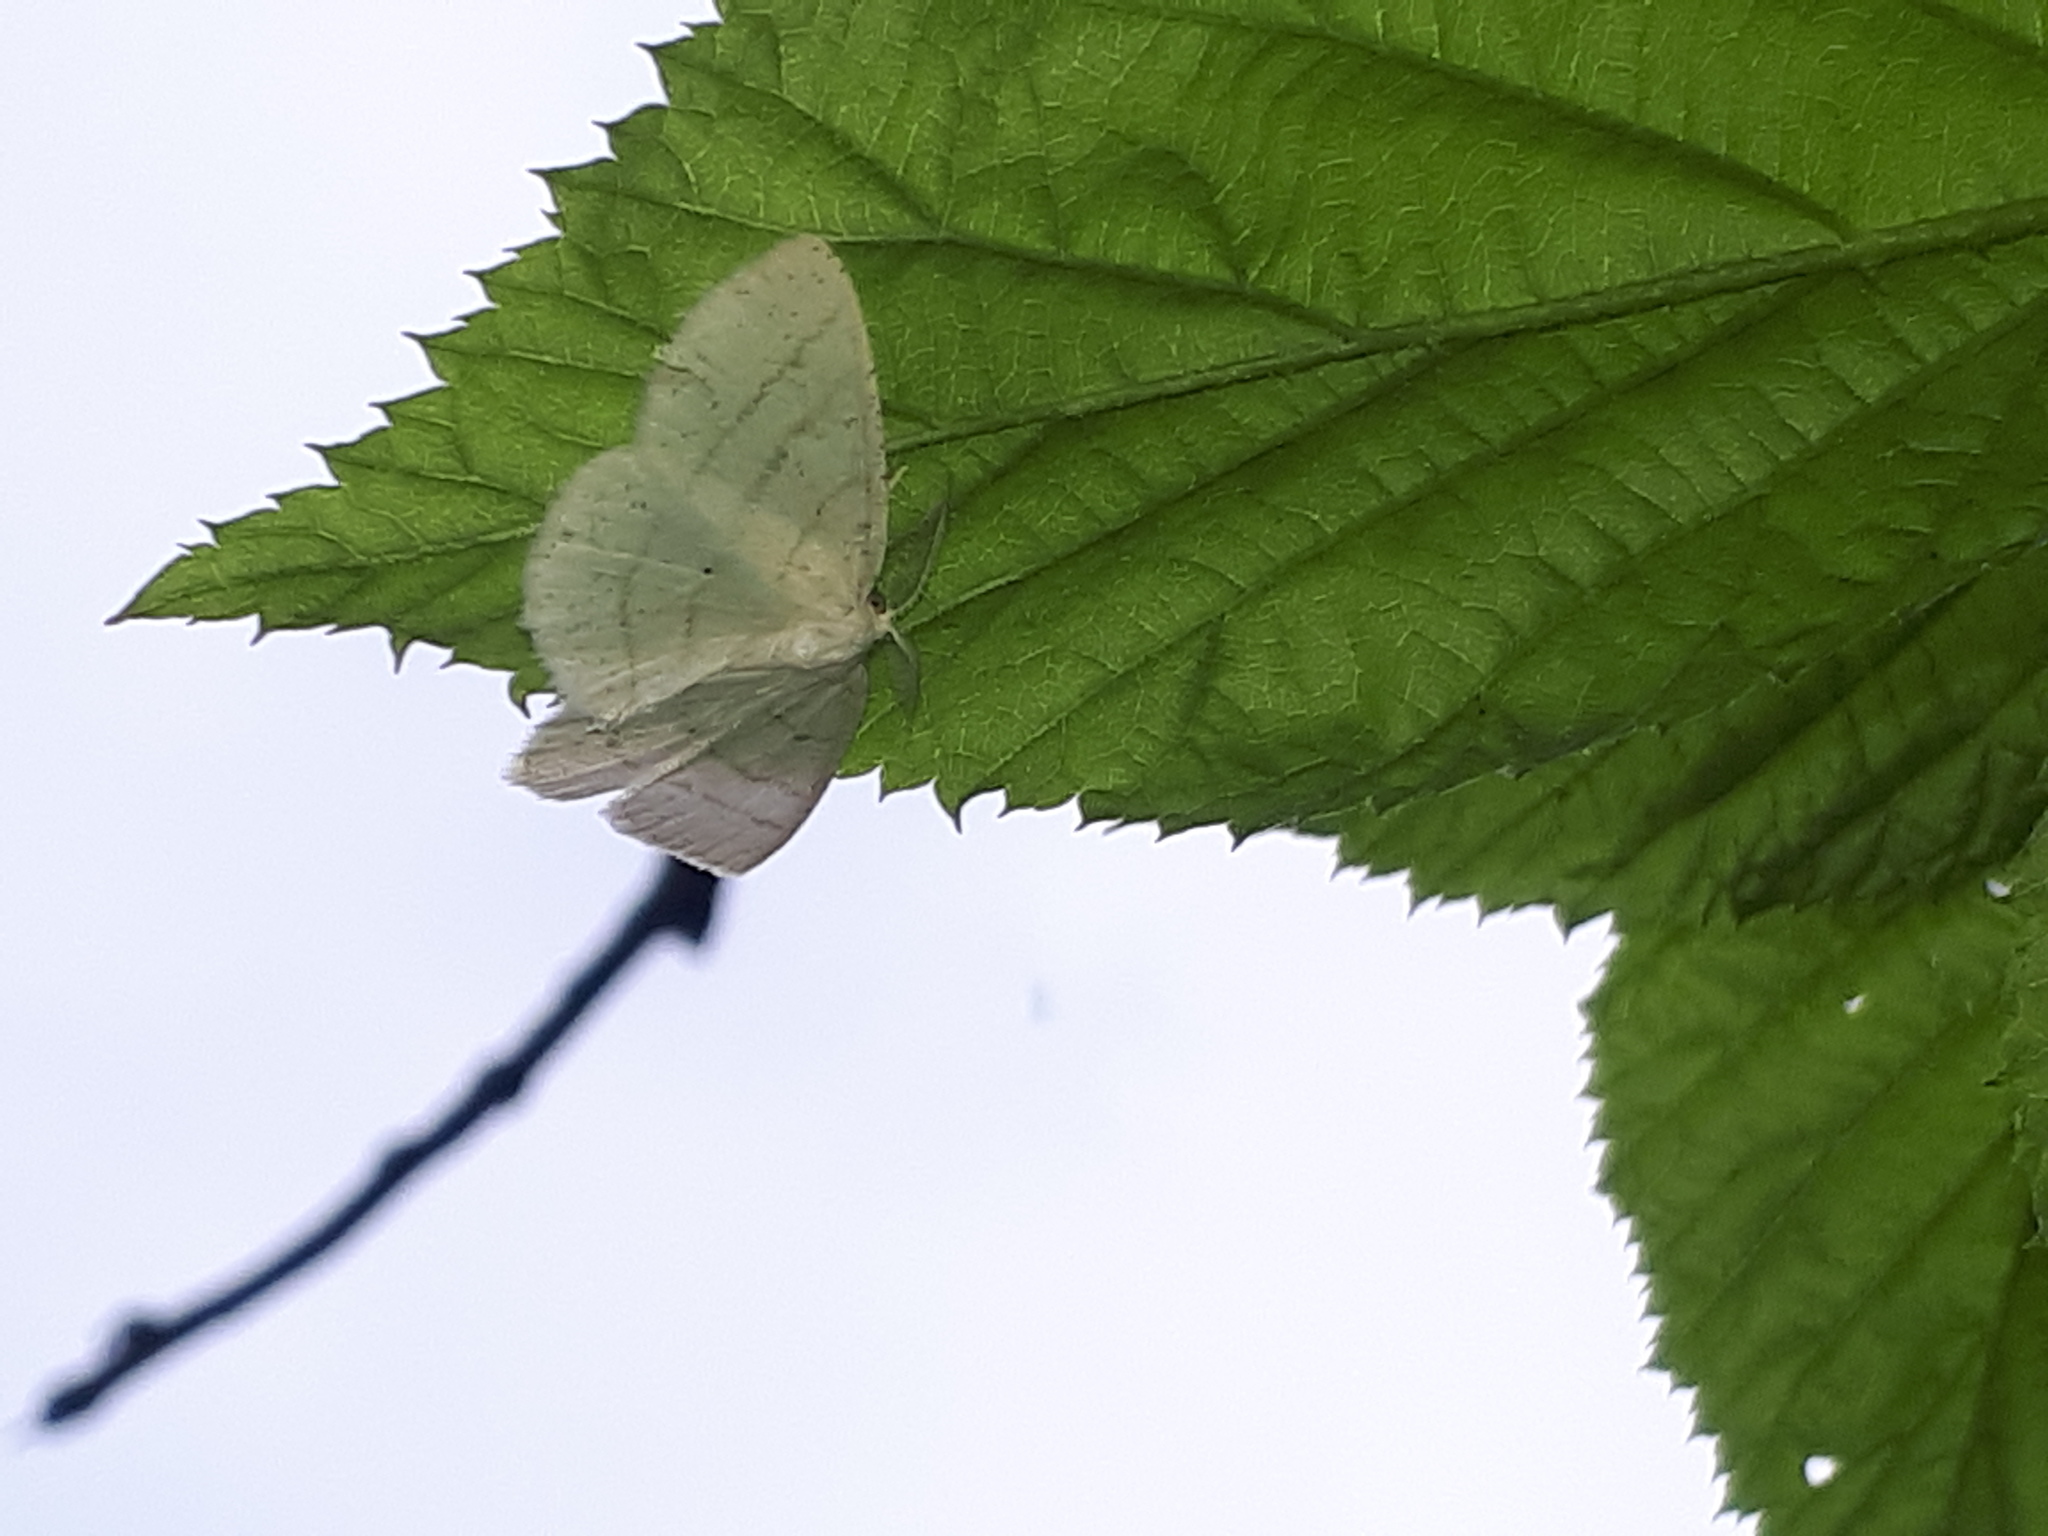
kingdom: Animalia
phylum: Arthropoda
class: Insecta
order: Lepidoptera
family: Geometridae
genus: Cabera
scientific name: Cabera pusaria
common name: Common white wave
